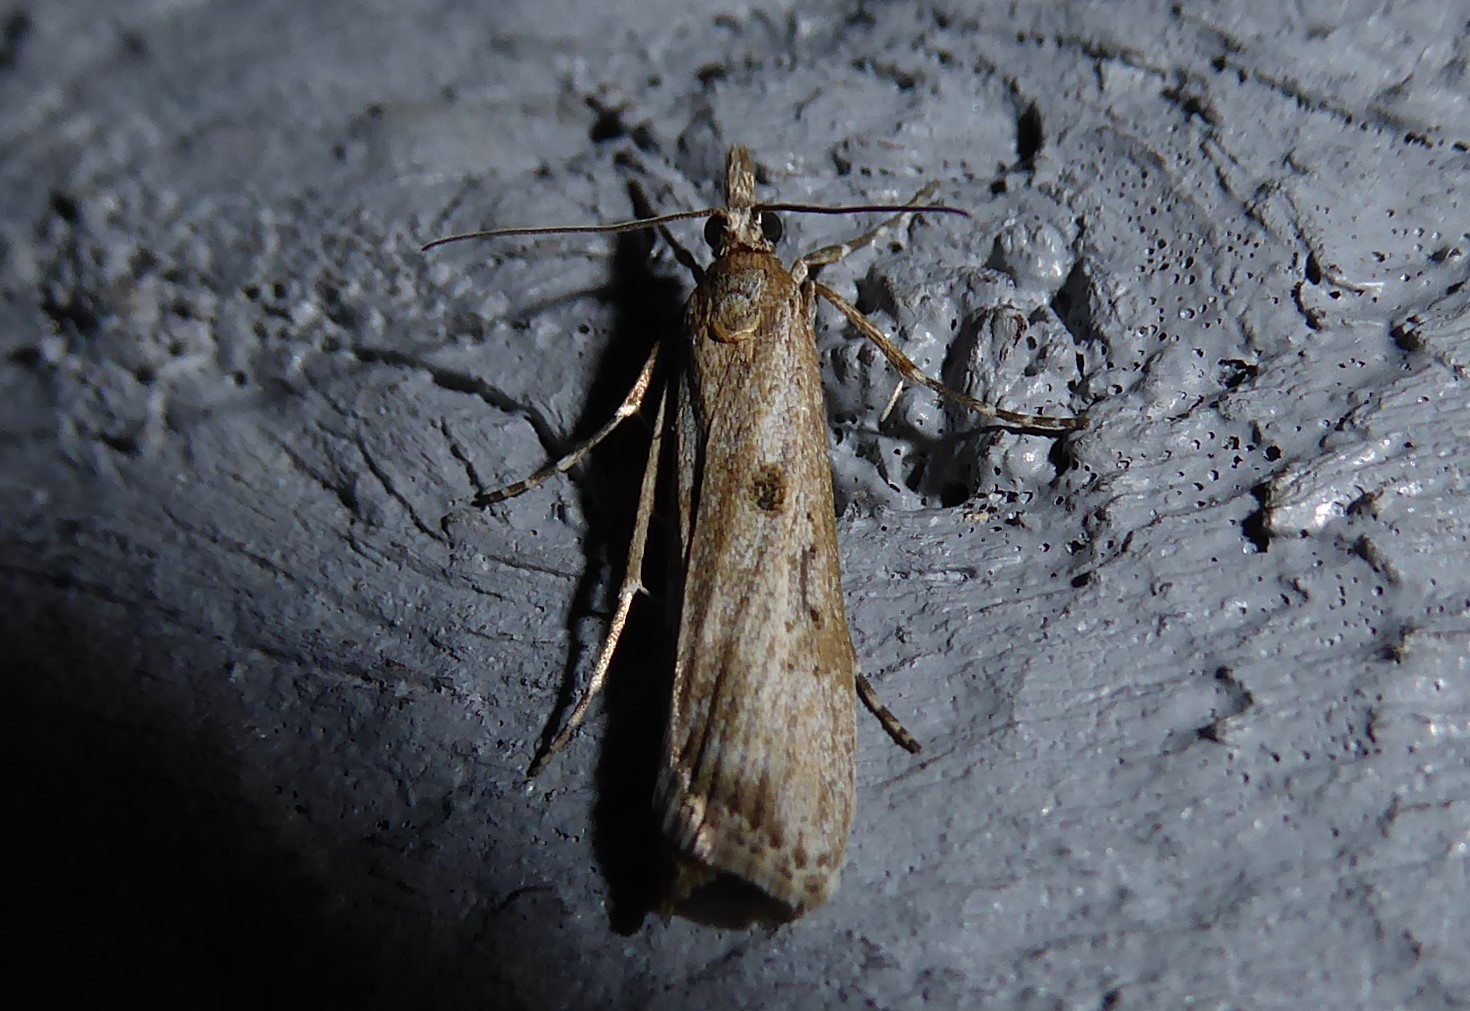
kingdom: Animalia
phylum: Arthropoda
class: Insecta
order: Lepidoptera
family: Crambidae
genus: Eudonia
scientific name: Eudonia leptalea
